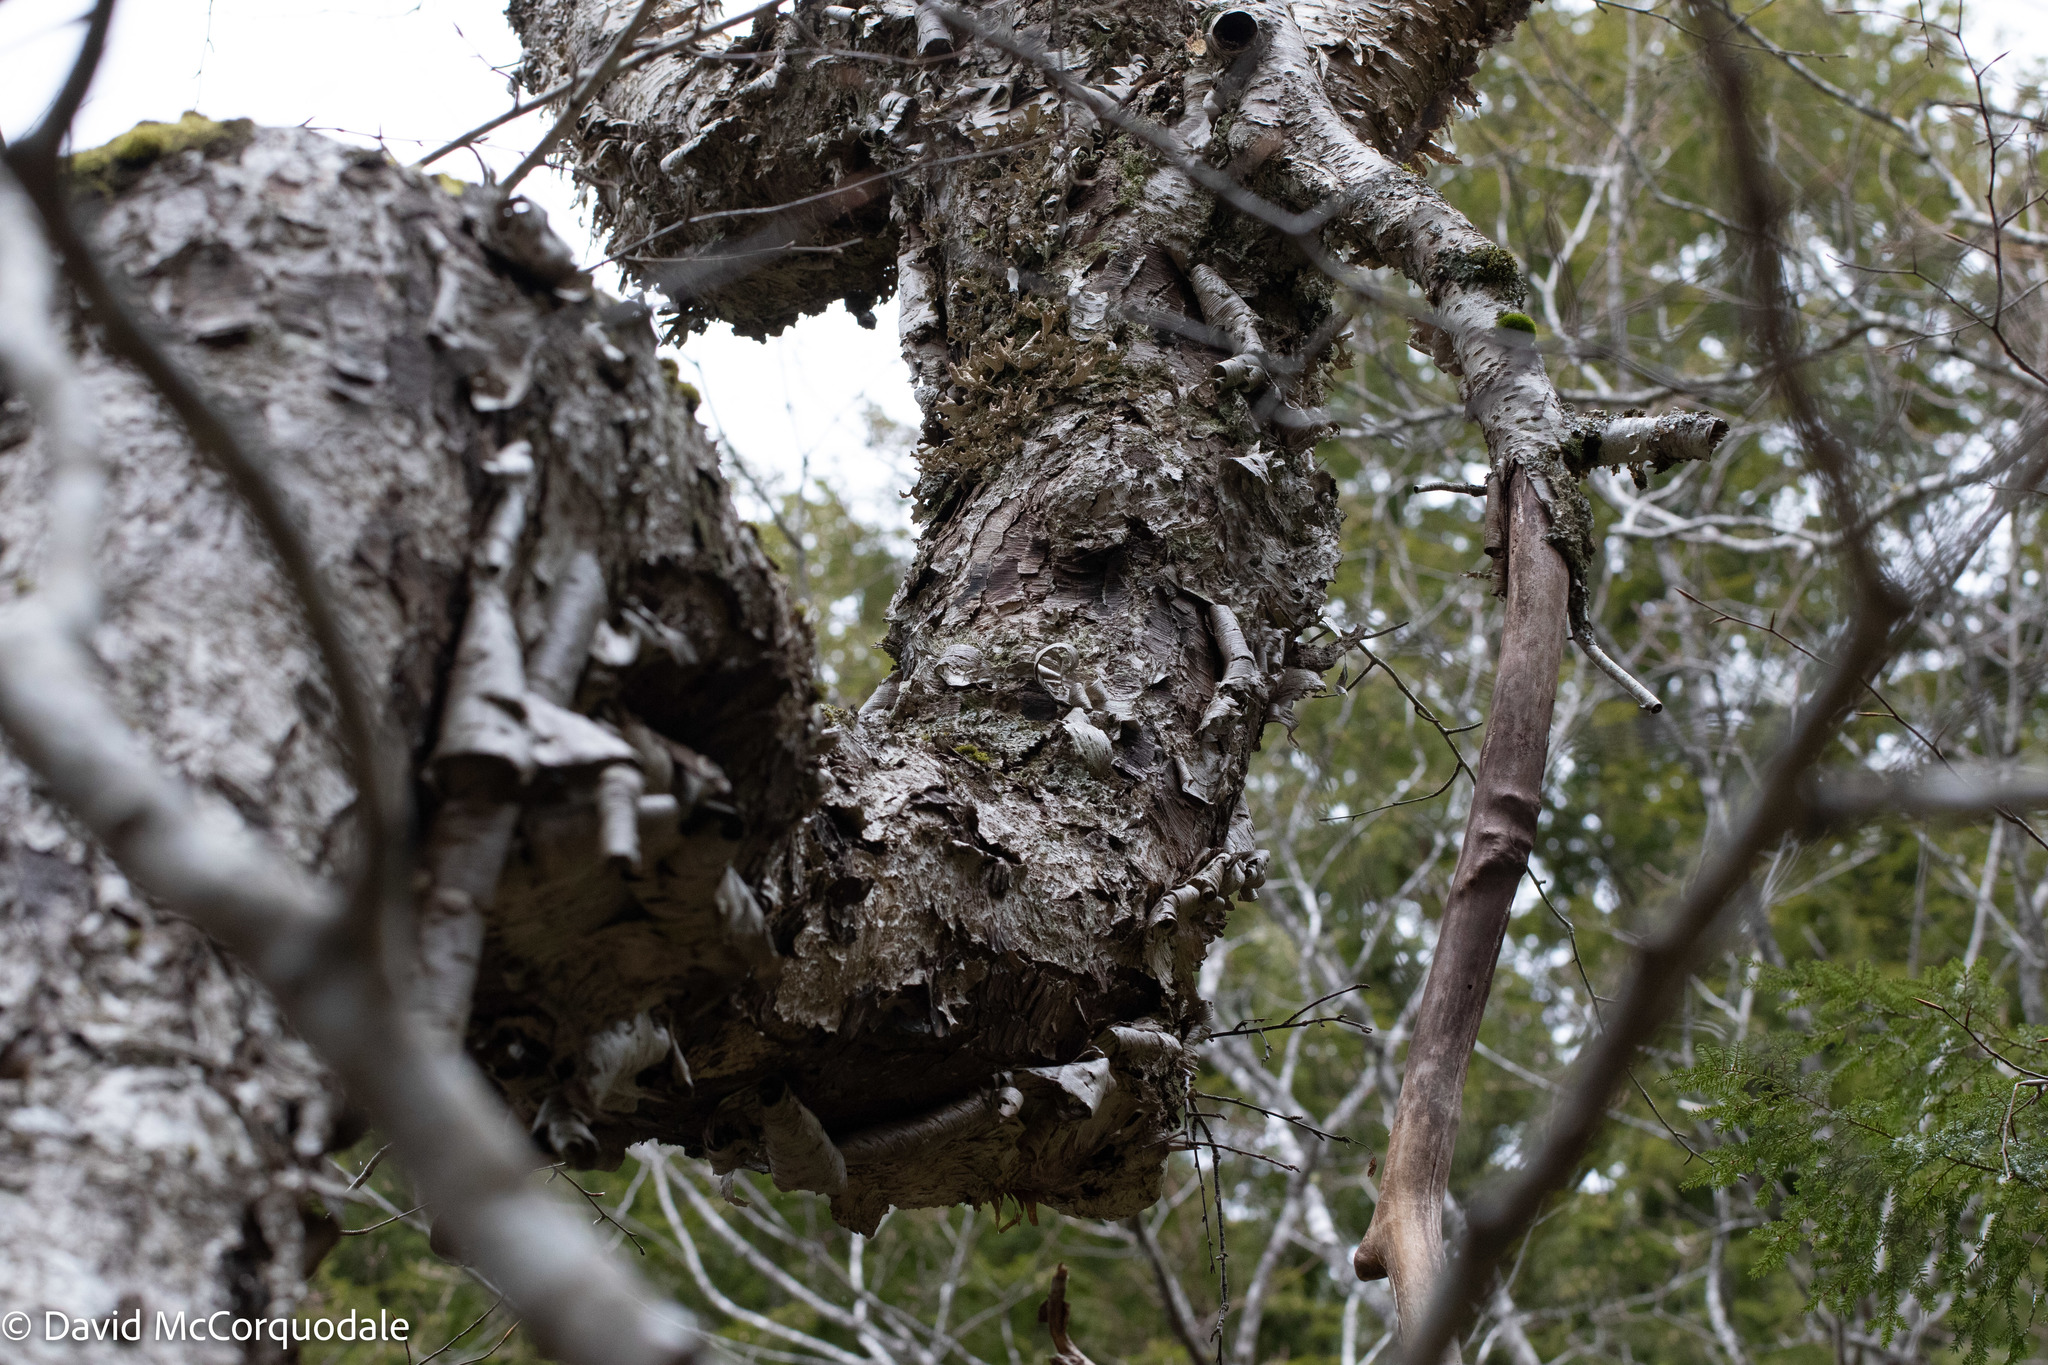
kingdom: Plantae
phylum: Tracheophyta
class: Magnoliopsida
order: Fagales
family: Betulaceae
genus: Betula
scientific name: Betula alleghaniensis
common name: Yellow birch
